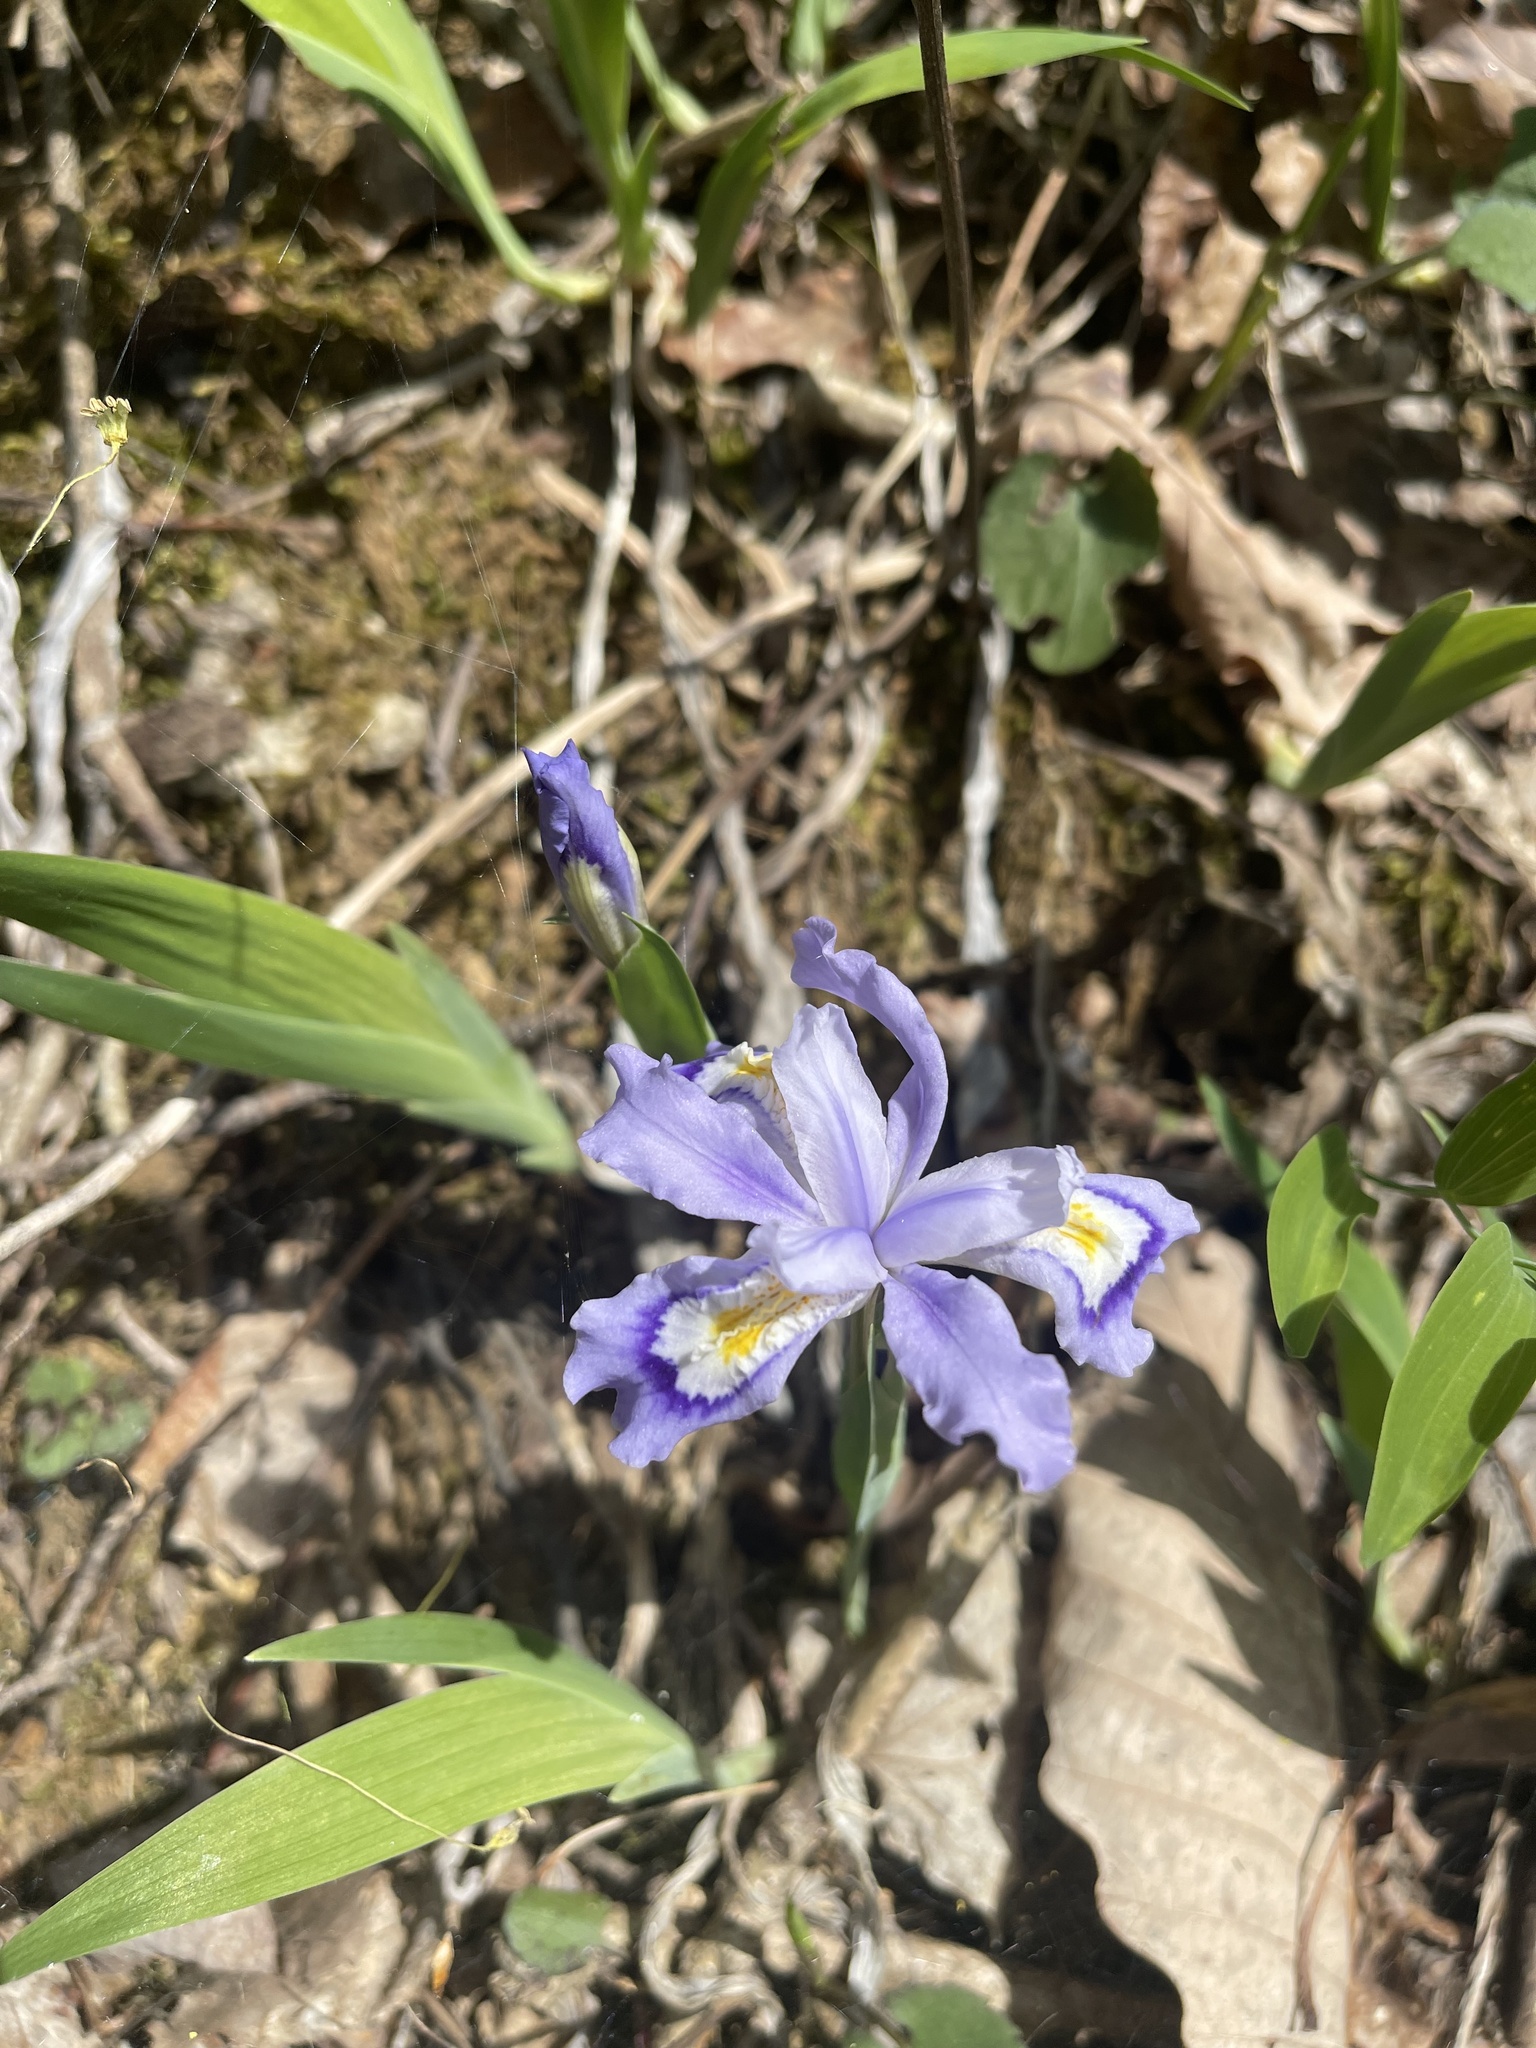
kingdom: Plantae
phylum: Tracheophyta
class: Liliopsida
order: Asparagales
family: Iridaceae
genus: Iris
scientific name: Iris cristata
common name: Crested iris
